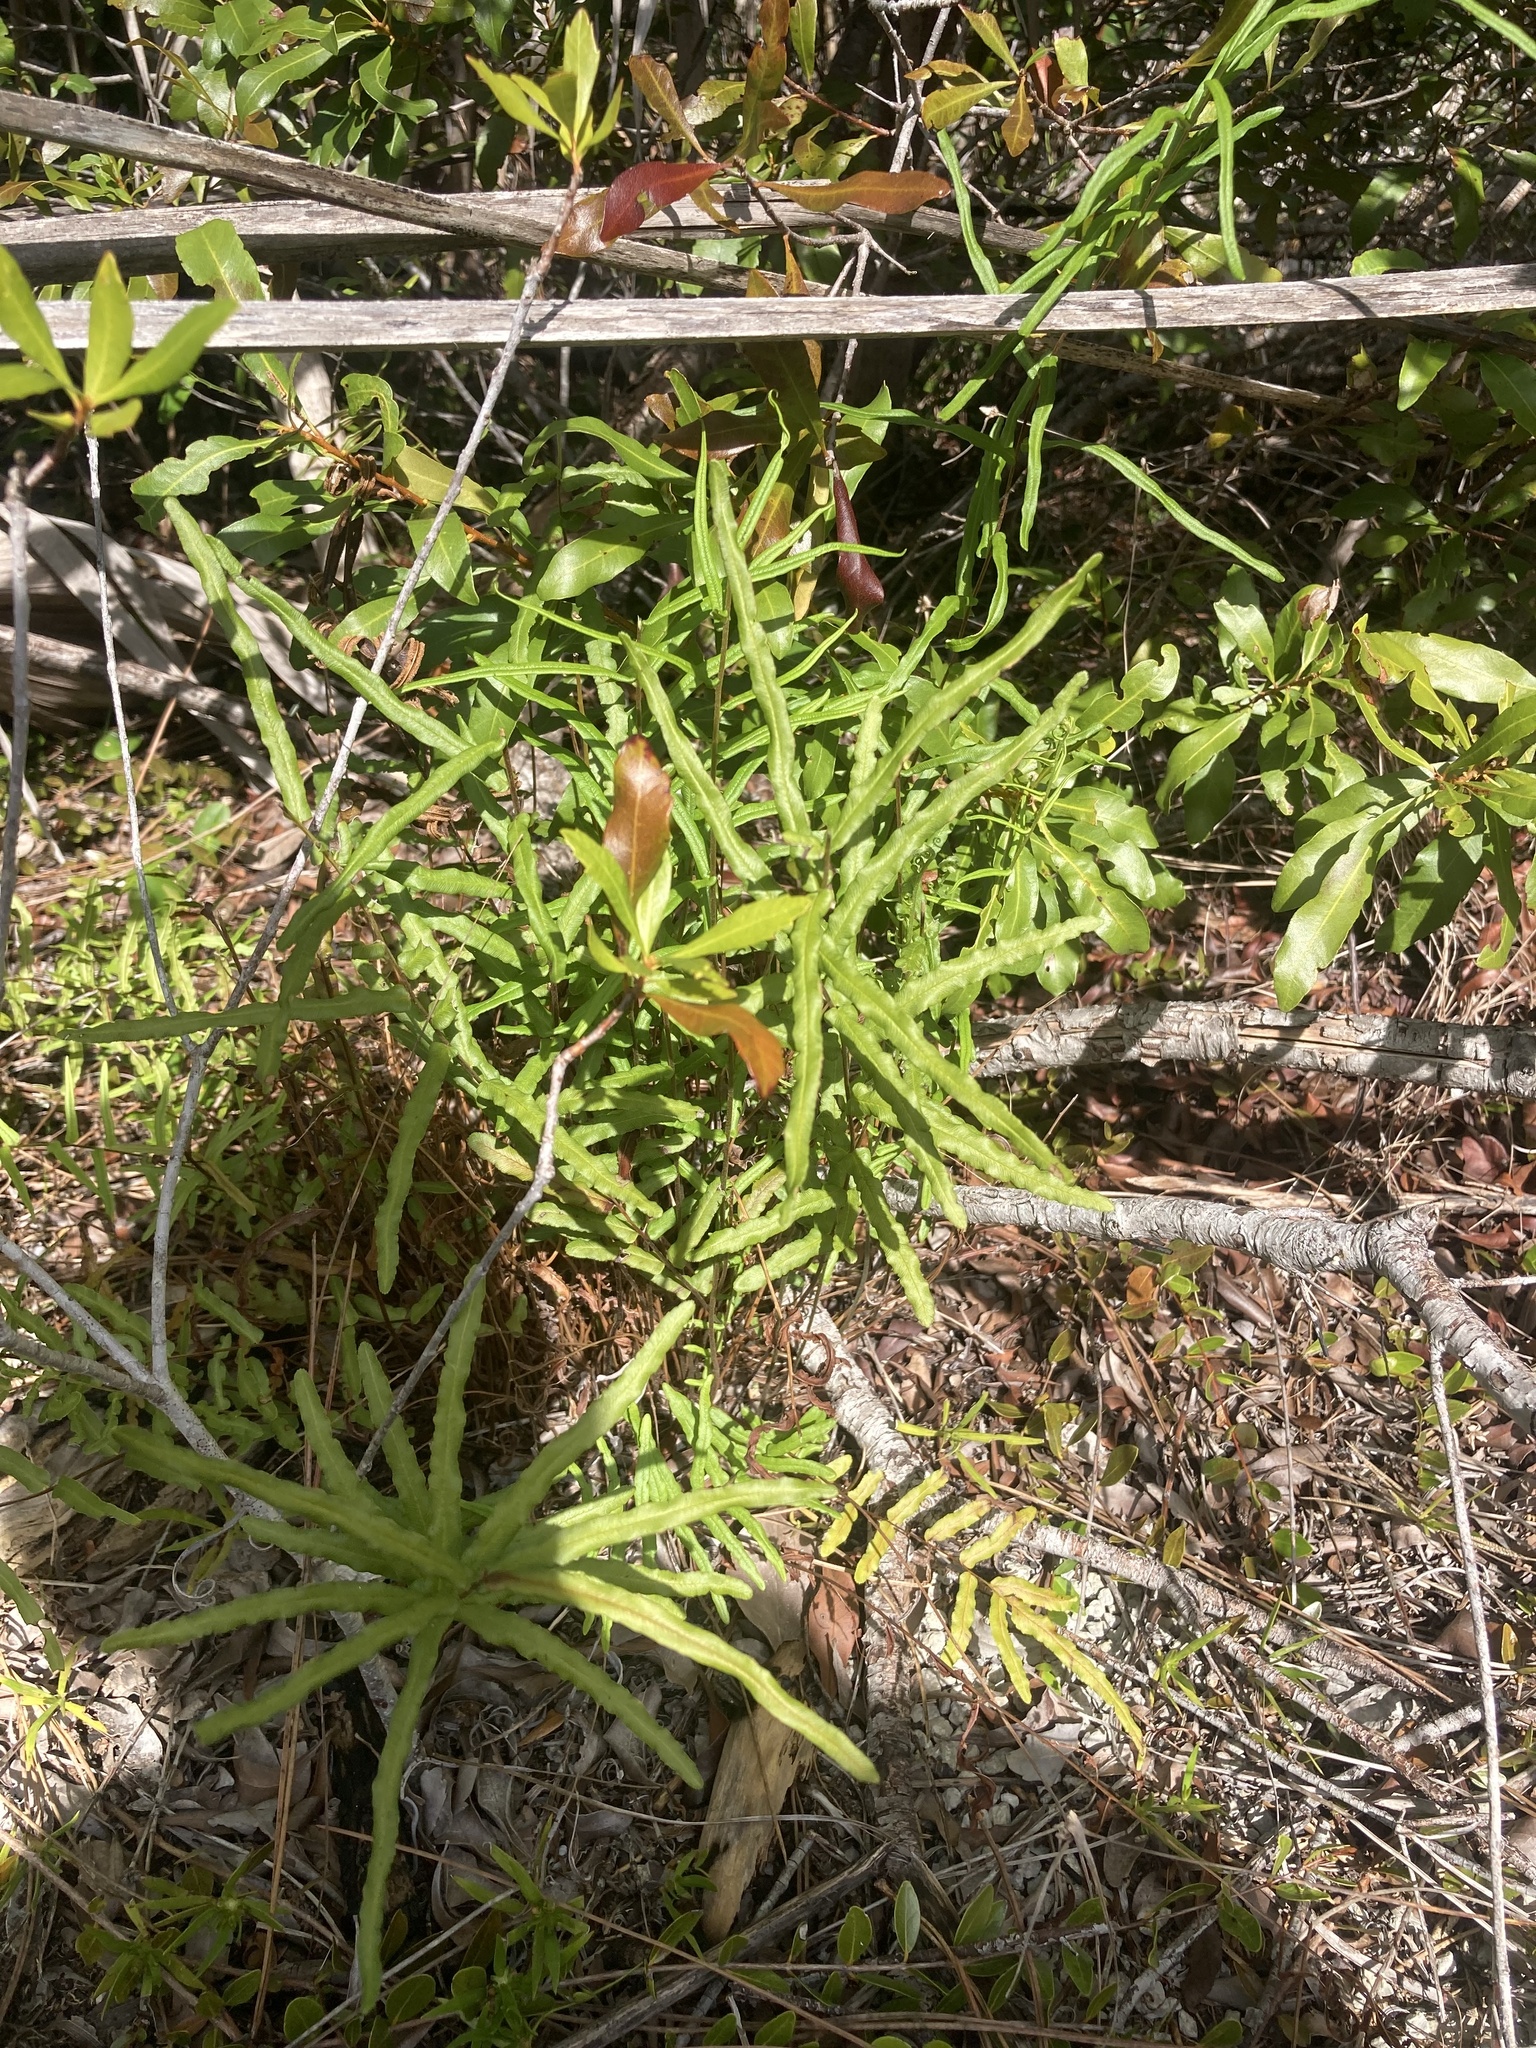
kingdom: Plantae
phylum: Tracheophyta
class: Polypodiopsida
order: Polypodiales
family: Pteridaceae
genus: Pteris
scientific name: Pteris bahamensis
